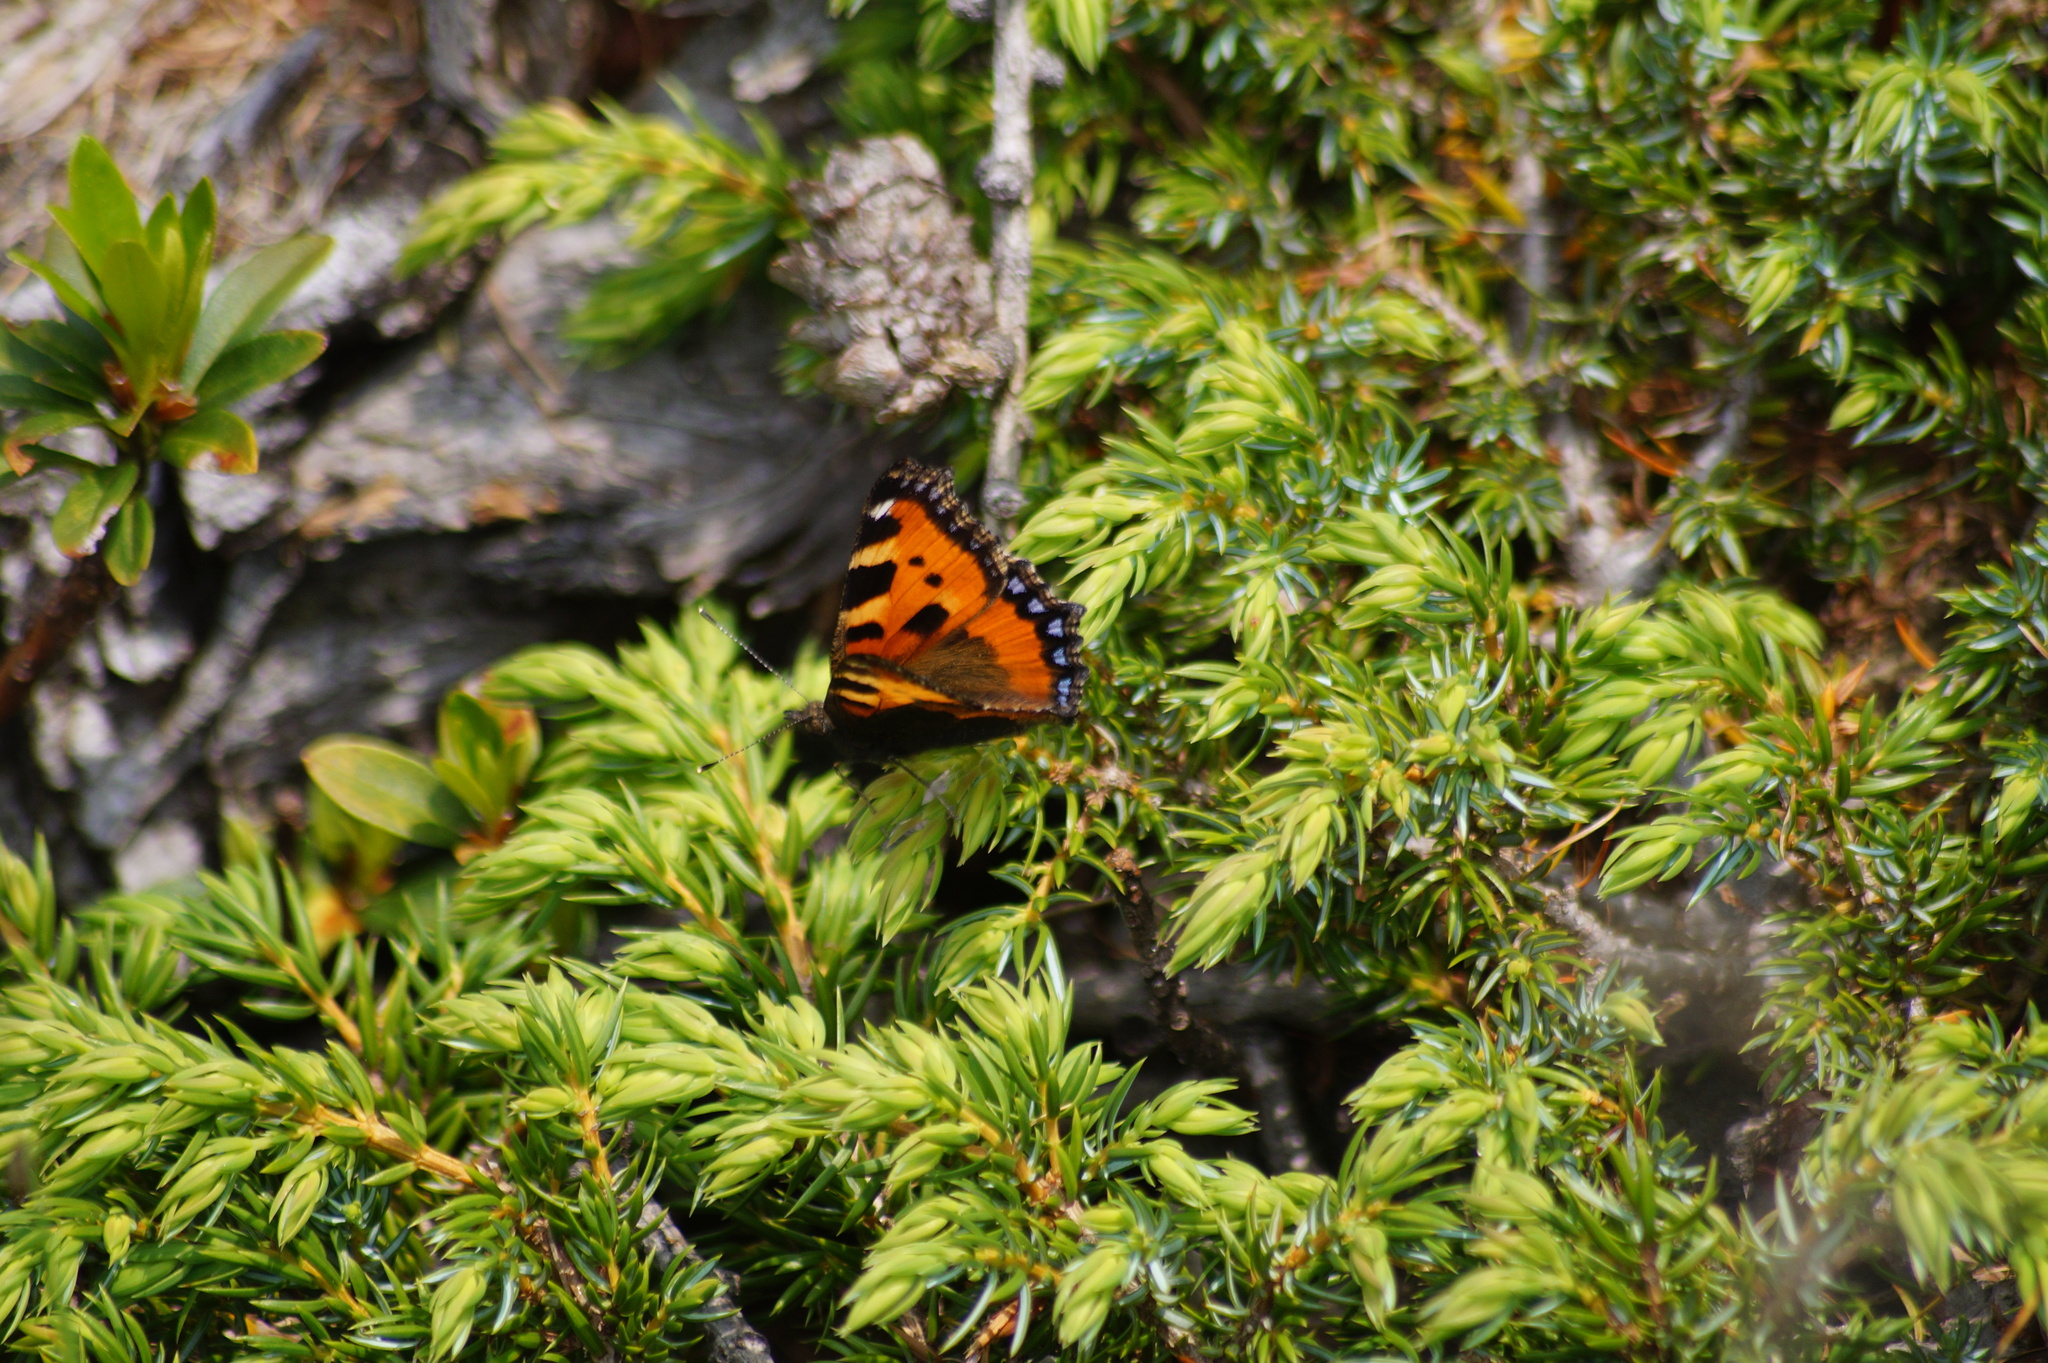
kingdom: Animalia
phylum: Arthropoda
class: Insecta
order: Lepidoptera
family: Nymphalidae
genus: Aglais
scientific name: Aglais urticae
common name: Small tortoiseshell
